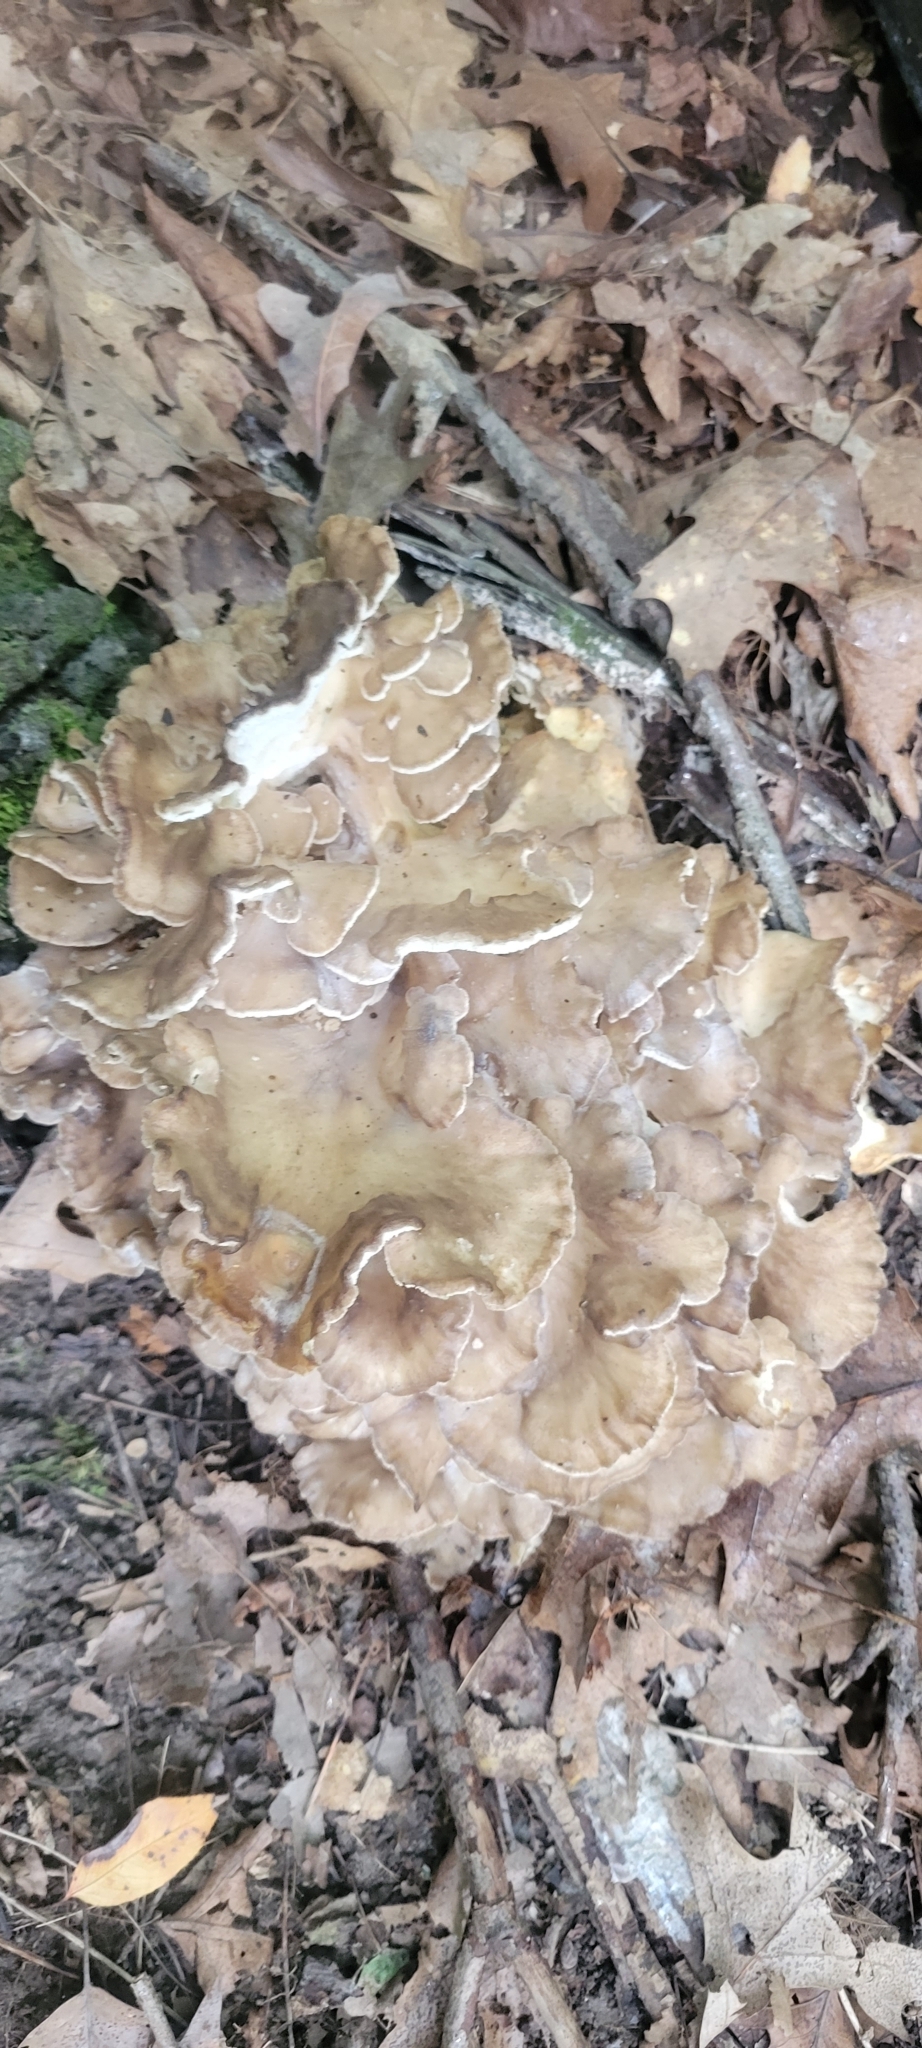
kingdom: Fungi
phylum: Basidiomycota
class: Agaricomycetes
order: Polyporales
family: Grifolaceae
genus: Grifola
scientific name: Grifola frondosa
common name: Hen of the woods
